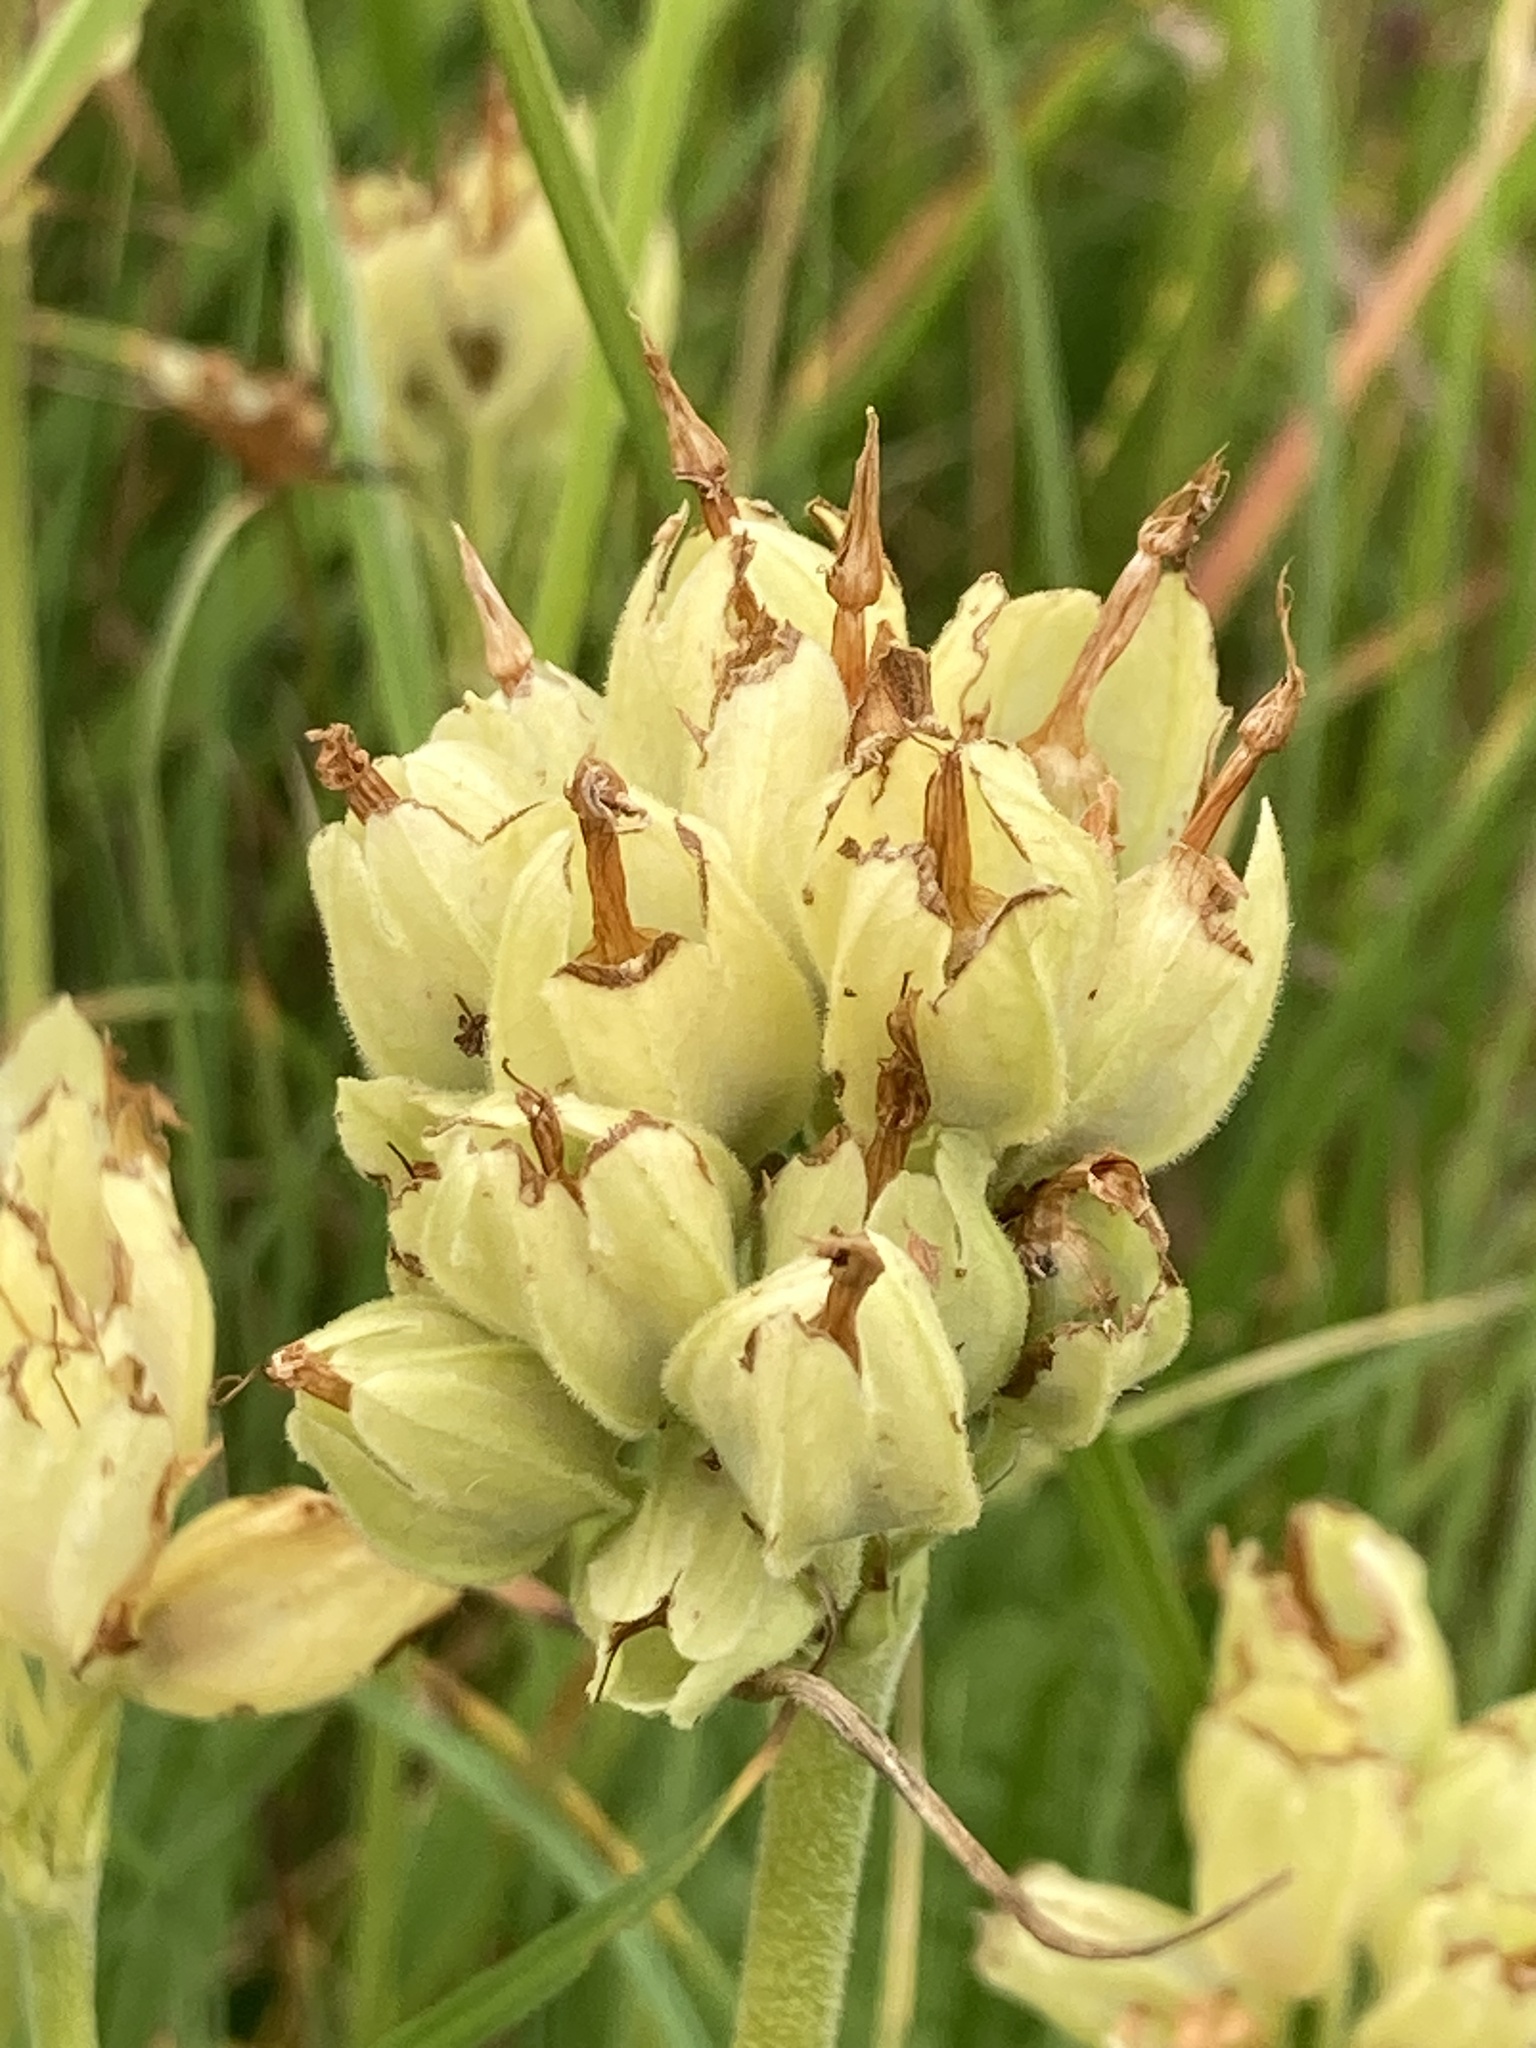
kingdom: Plantae
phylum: Tracheophyta
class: Magnoliopsida
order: Ericales
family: Primulaceae
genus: Primula
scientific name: Primula veris
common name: Cowslip
